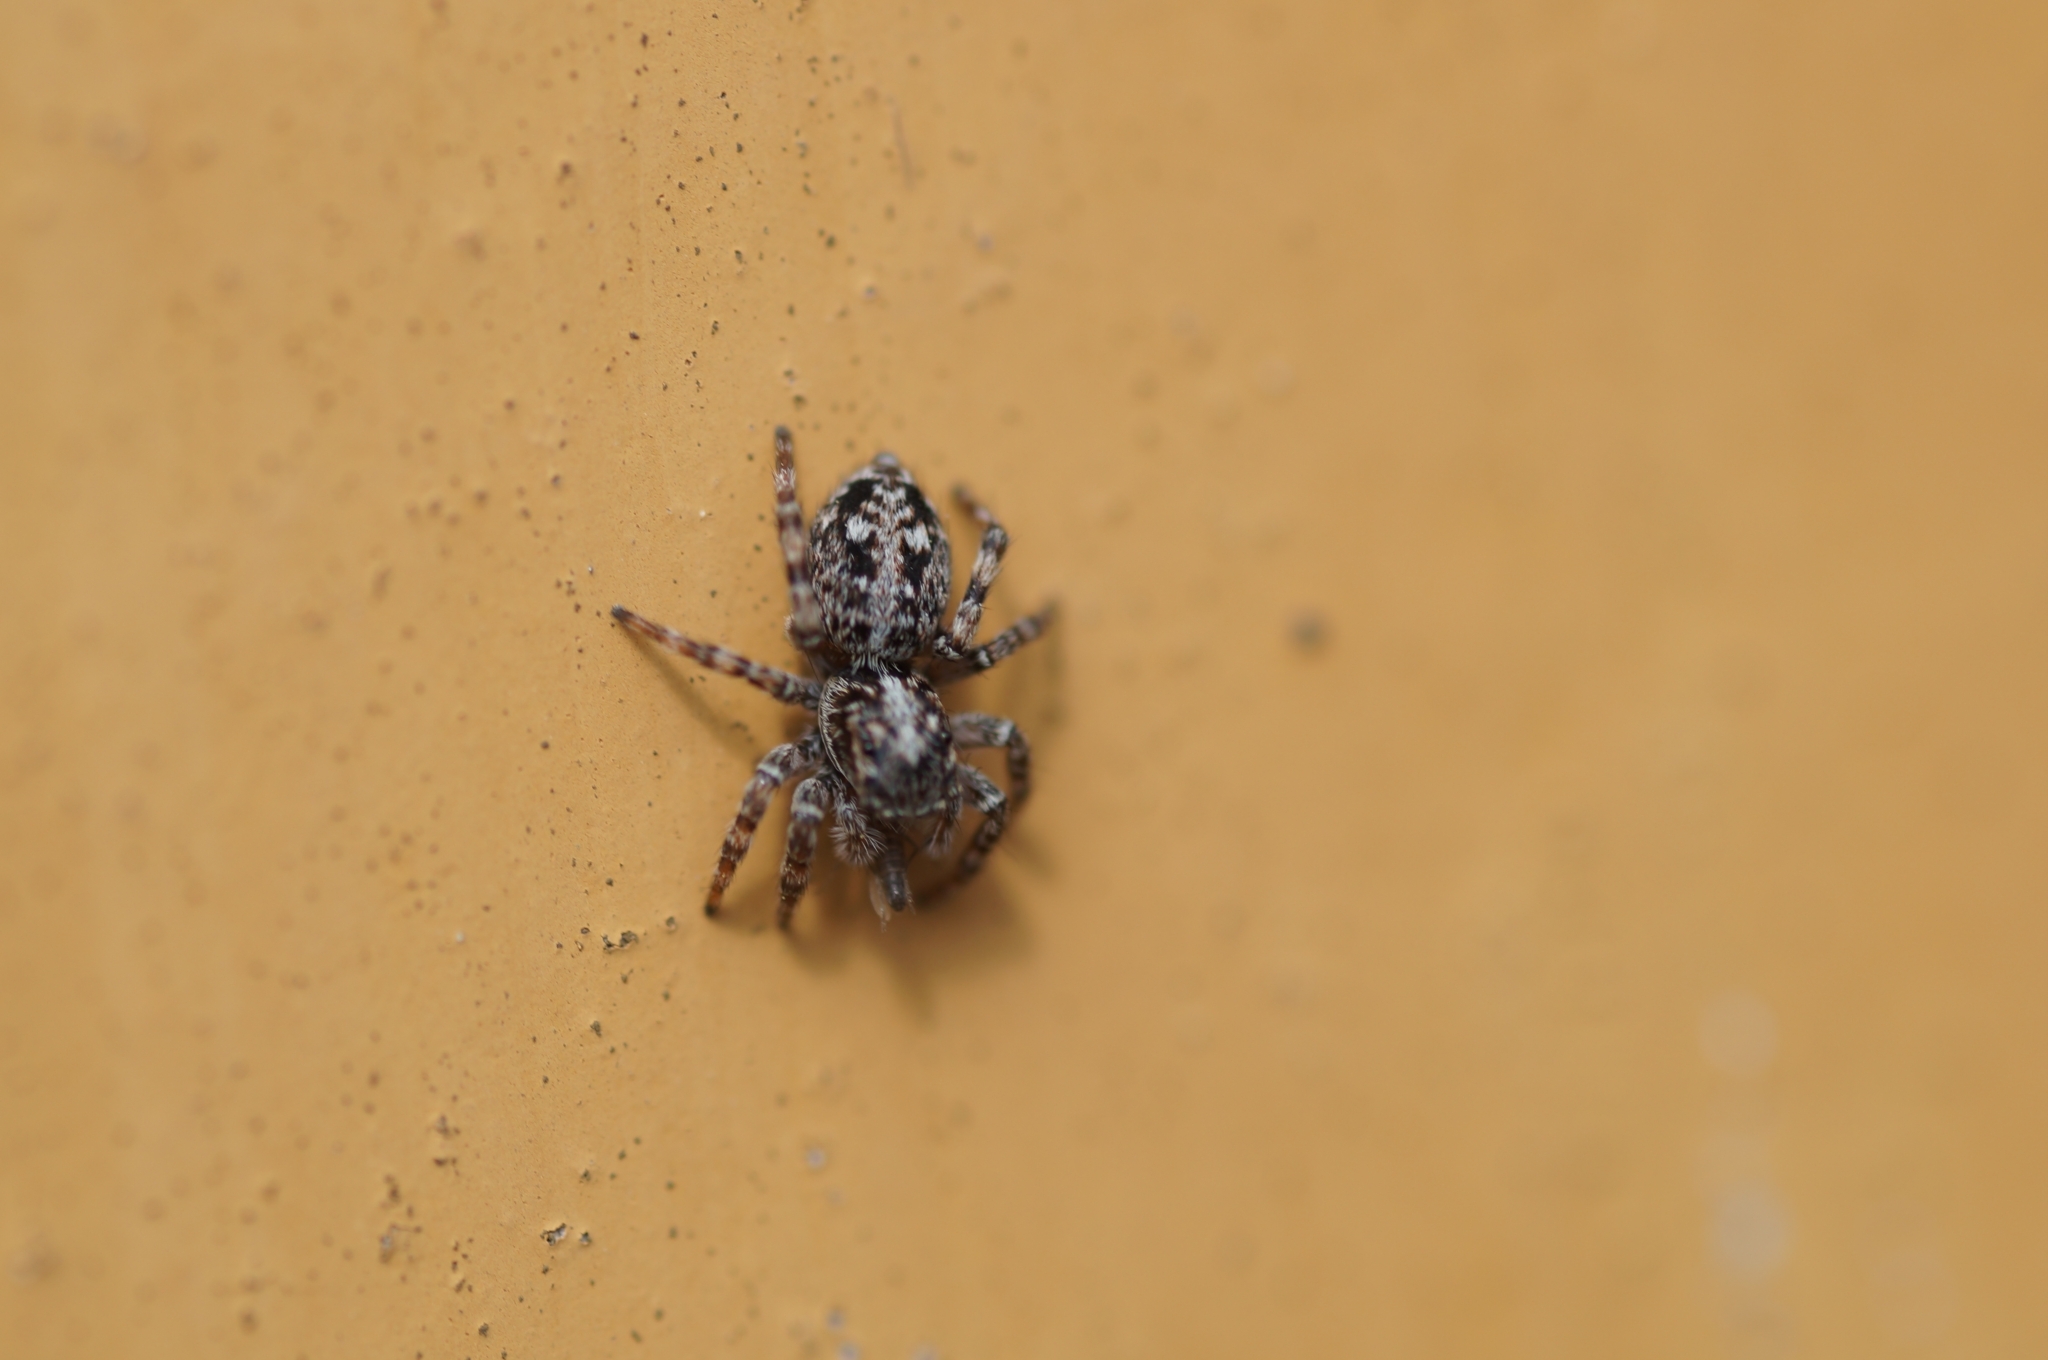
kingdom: Animalia
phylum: Arthropoda
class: Arachnida
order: Araneae
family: Salticidae
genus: Attulus
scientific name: Attulus terebratus
